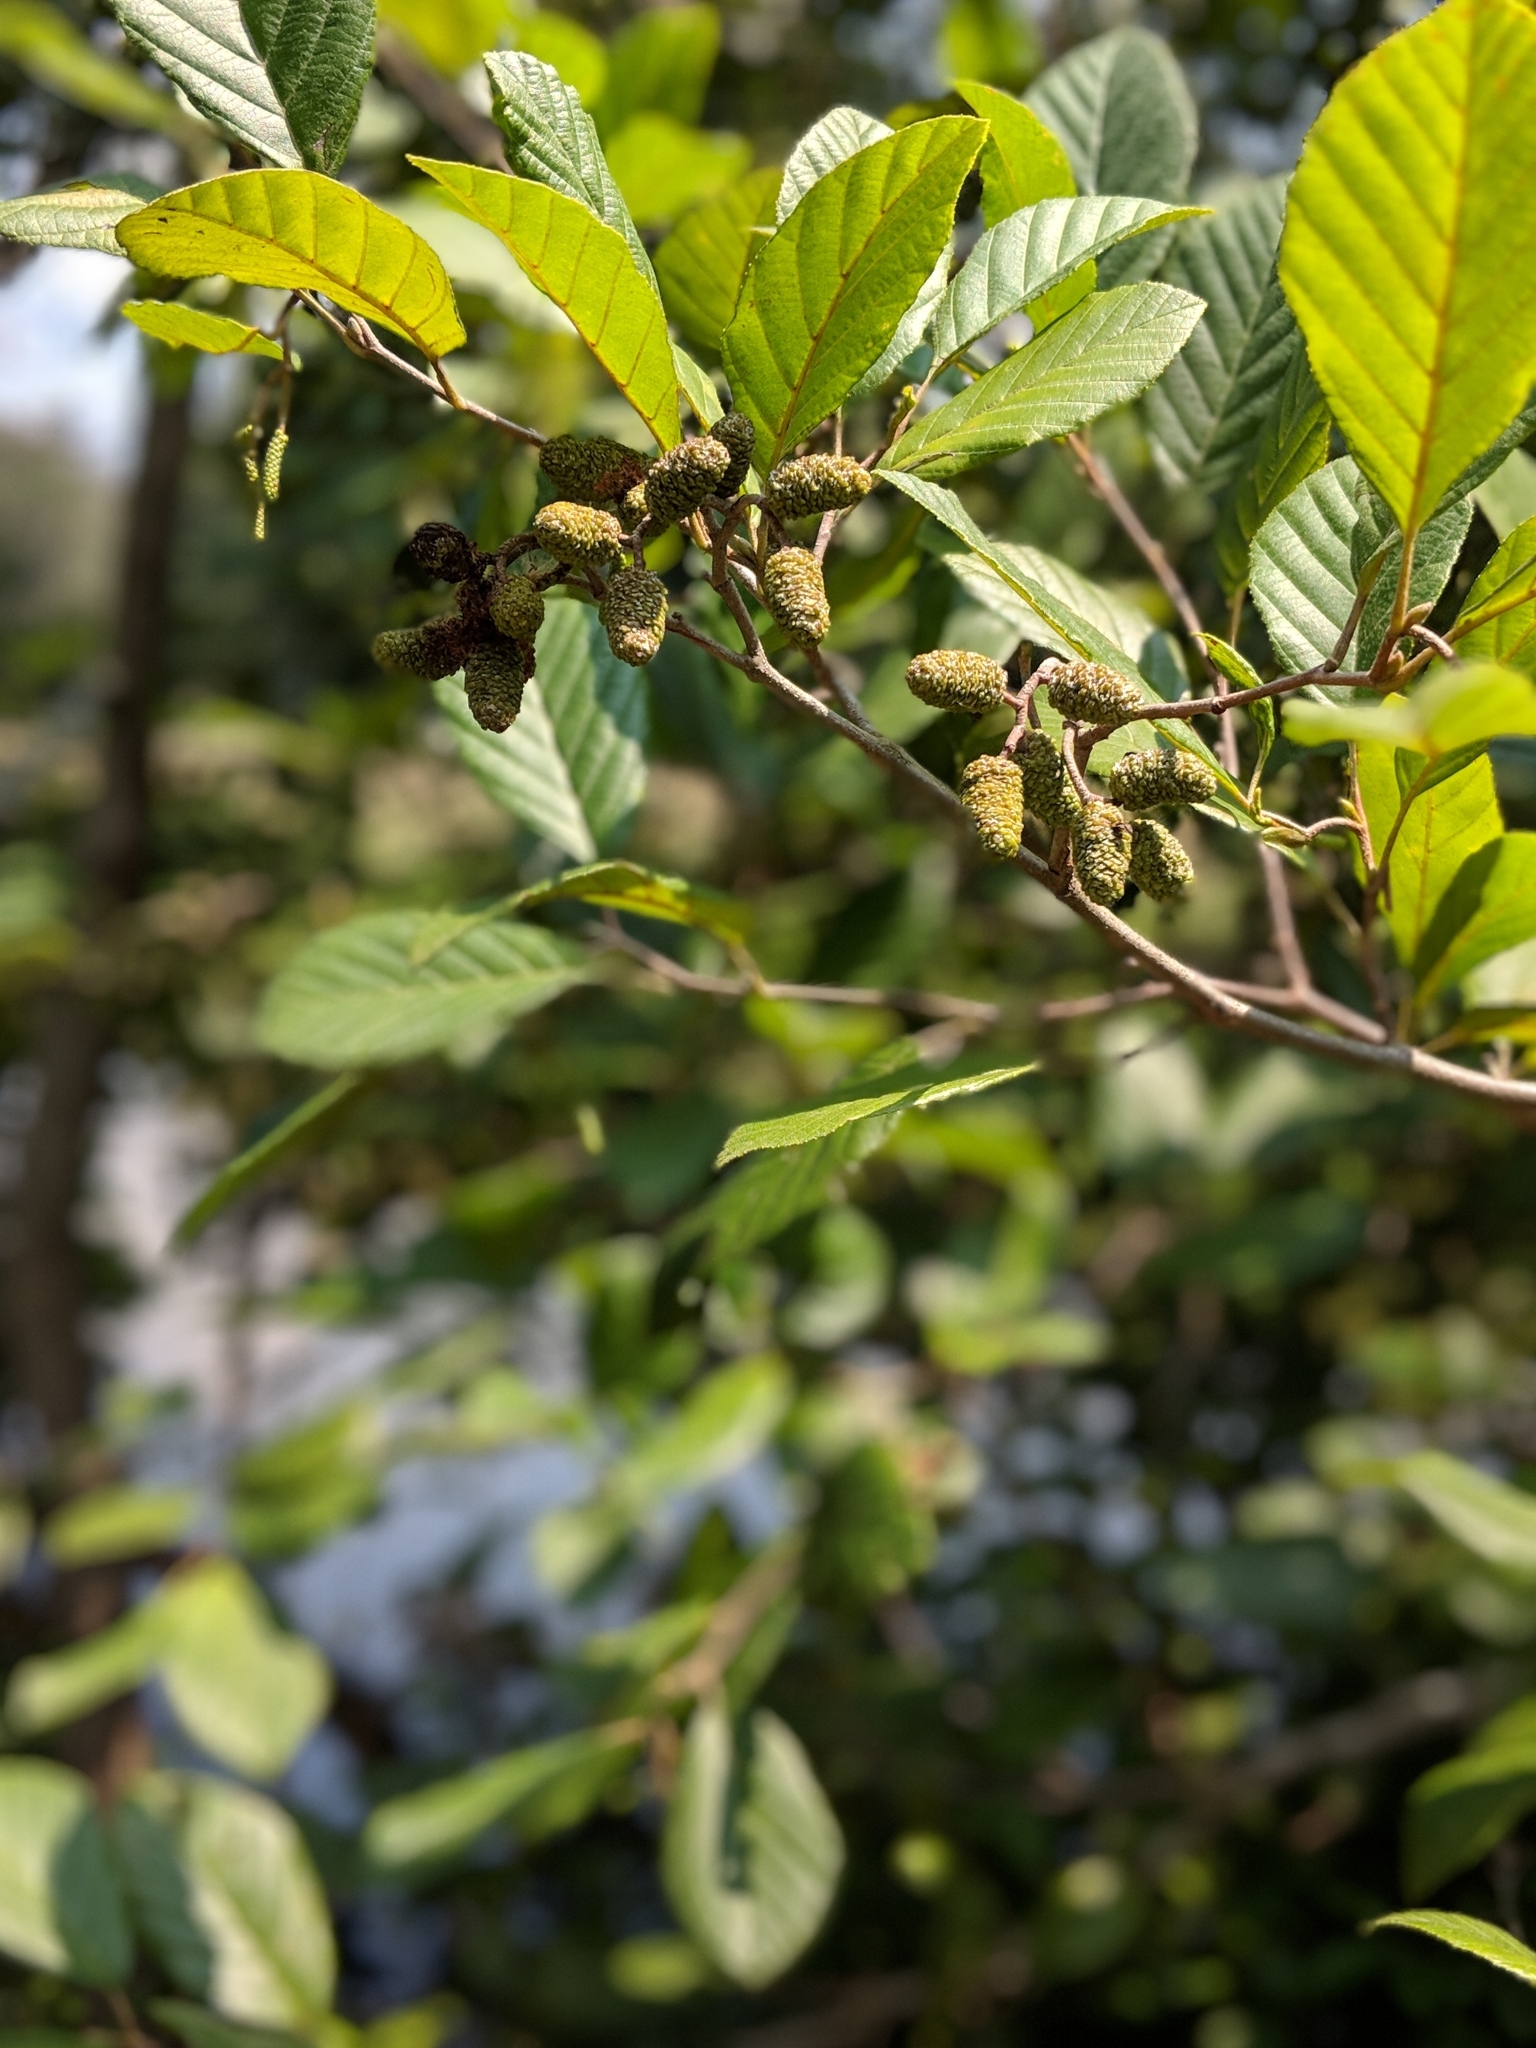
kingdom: Plantae
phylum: Tracheophyta
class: Magnoliopsida
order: Fagales
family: Betulaceae
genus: Alnus
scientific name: Alnus serrulata
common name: Hazel alder
